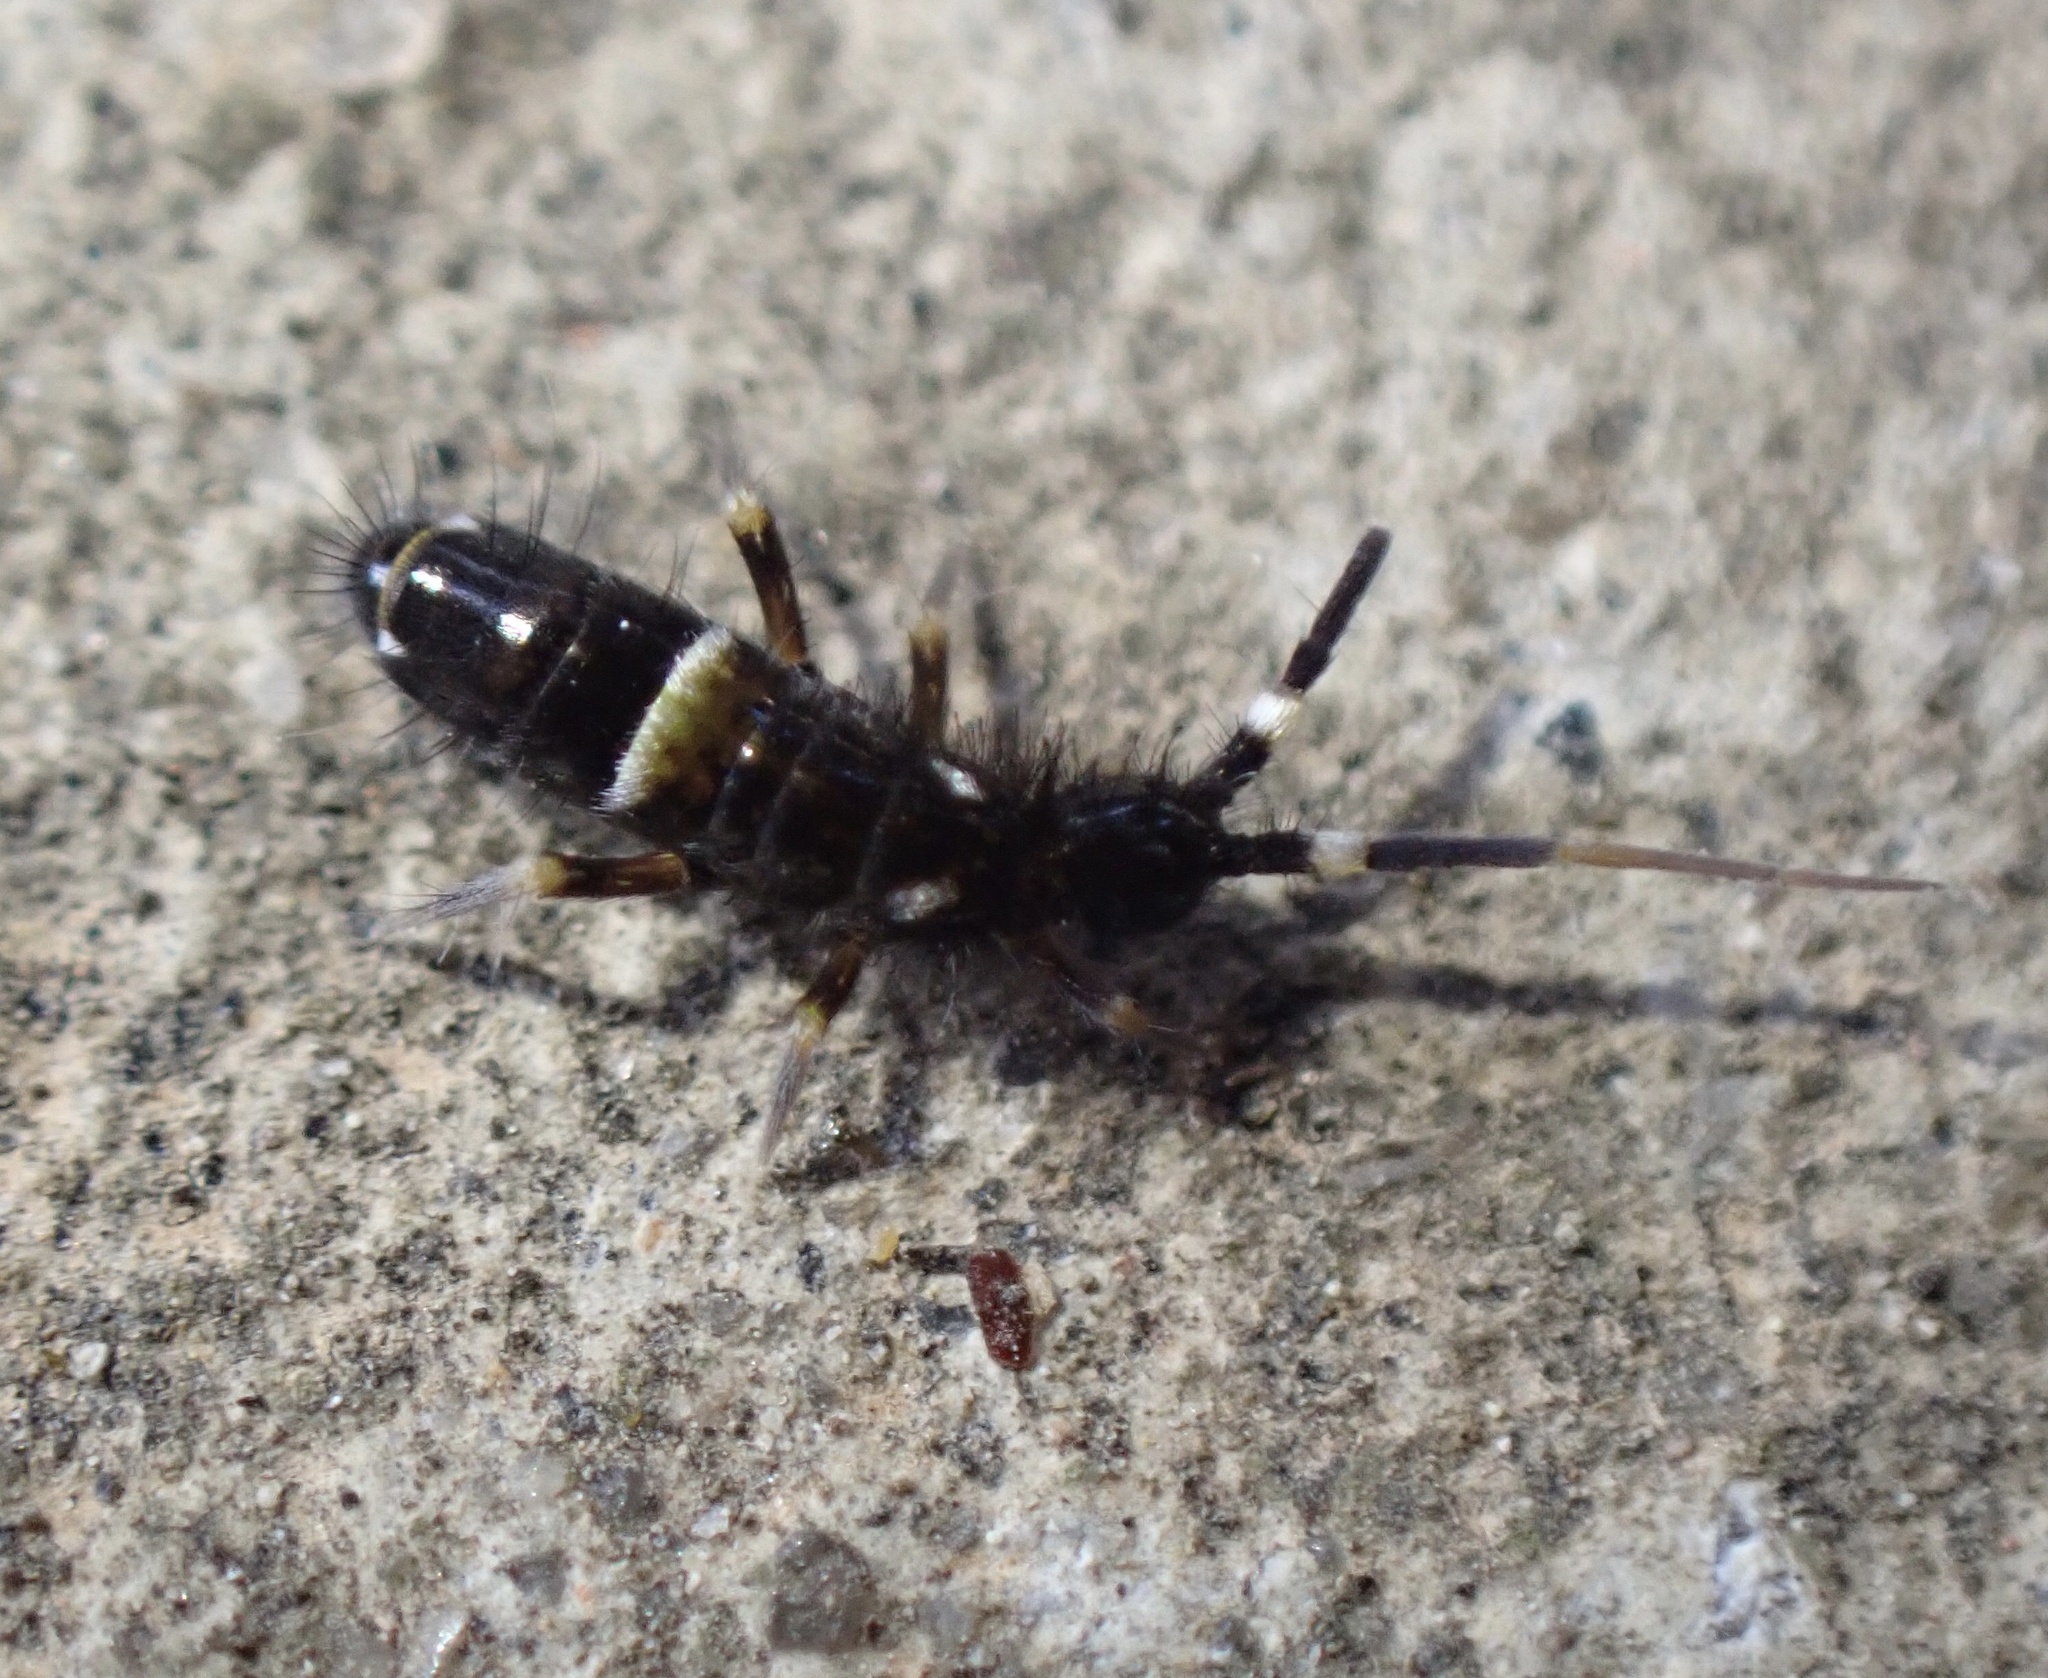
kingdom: Animalia
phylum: Arthropoda
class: Collembola
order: Entomobryomorpha
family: Orchesellidae
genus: Orchesella
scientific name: Orchesella cincta
